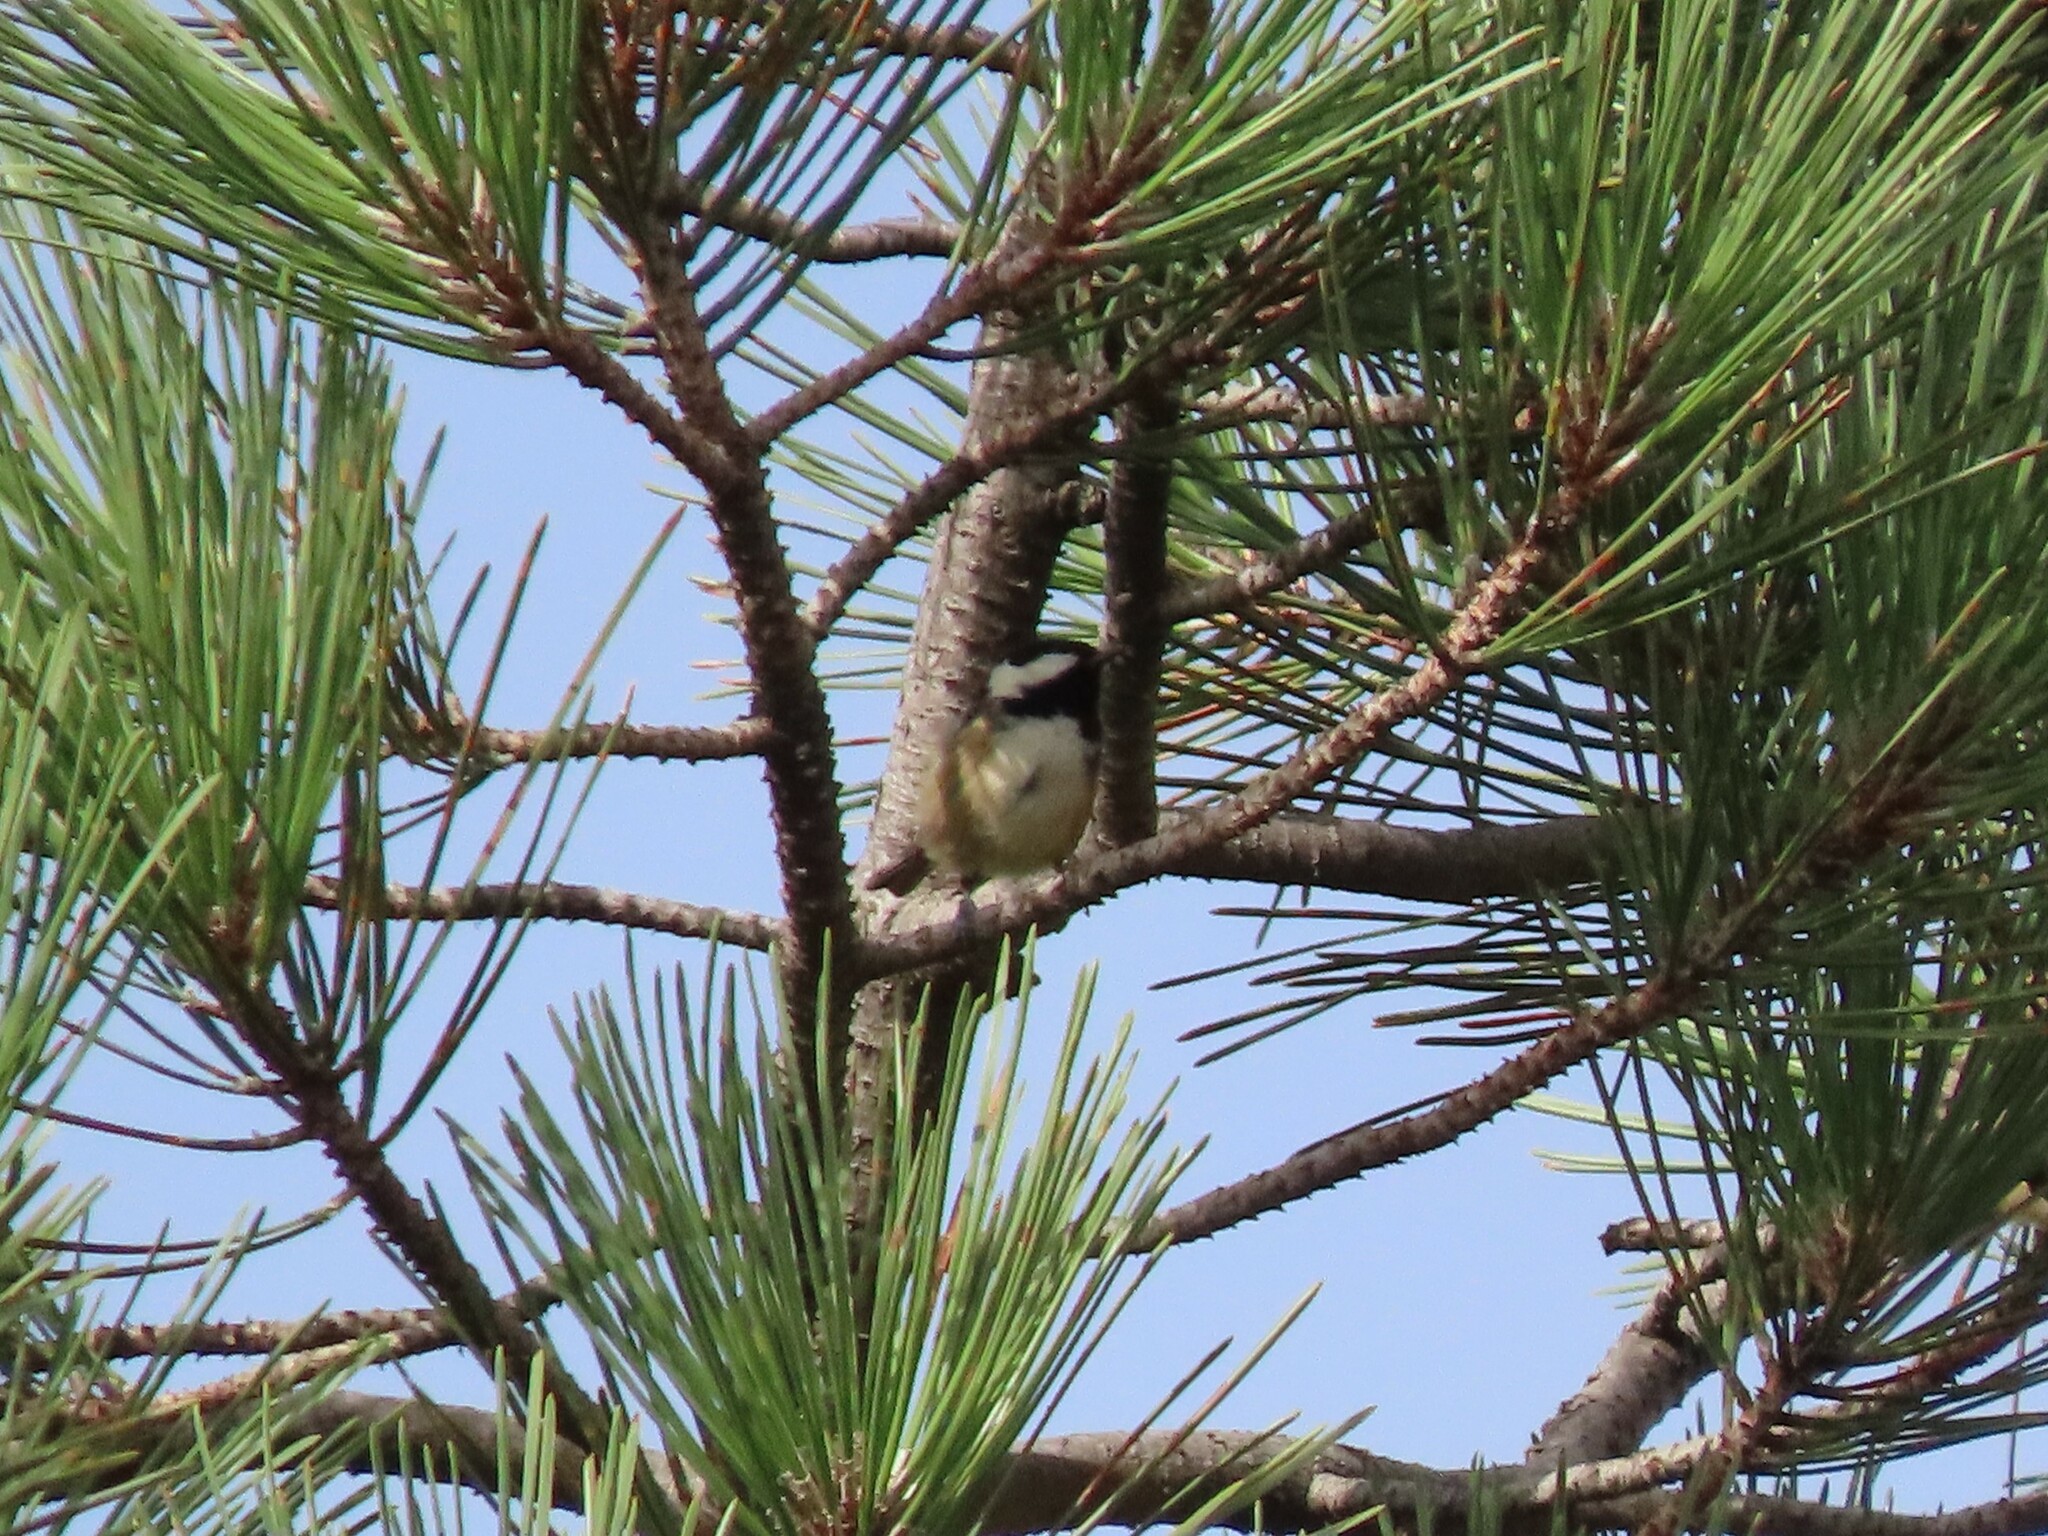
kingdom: Animalia
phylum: Chordata
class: Aves
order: Passeriformes
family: Paridae
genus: Periparus
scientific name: Periparus ater
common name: Coal tit
